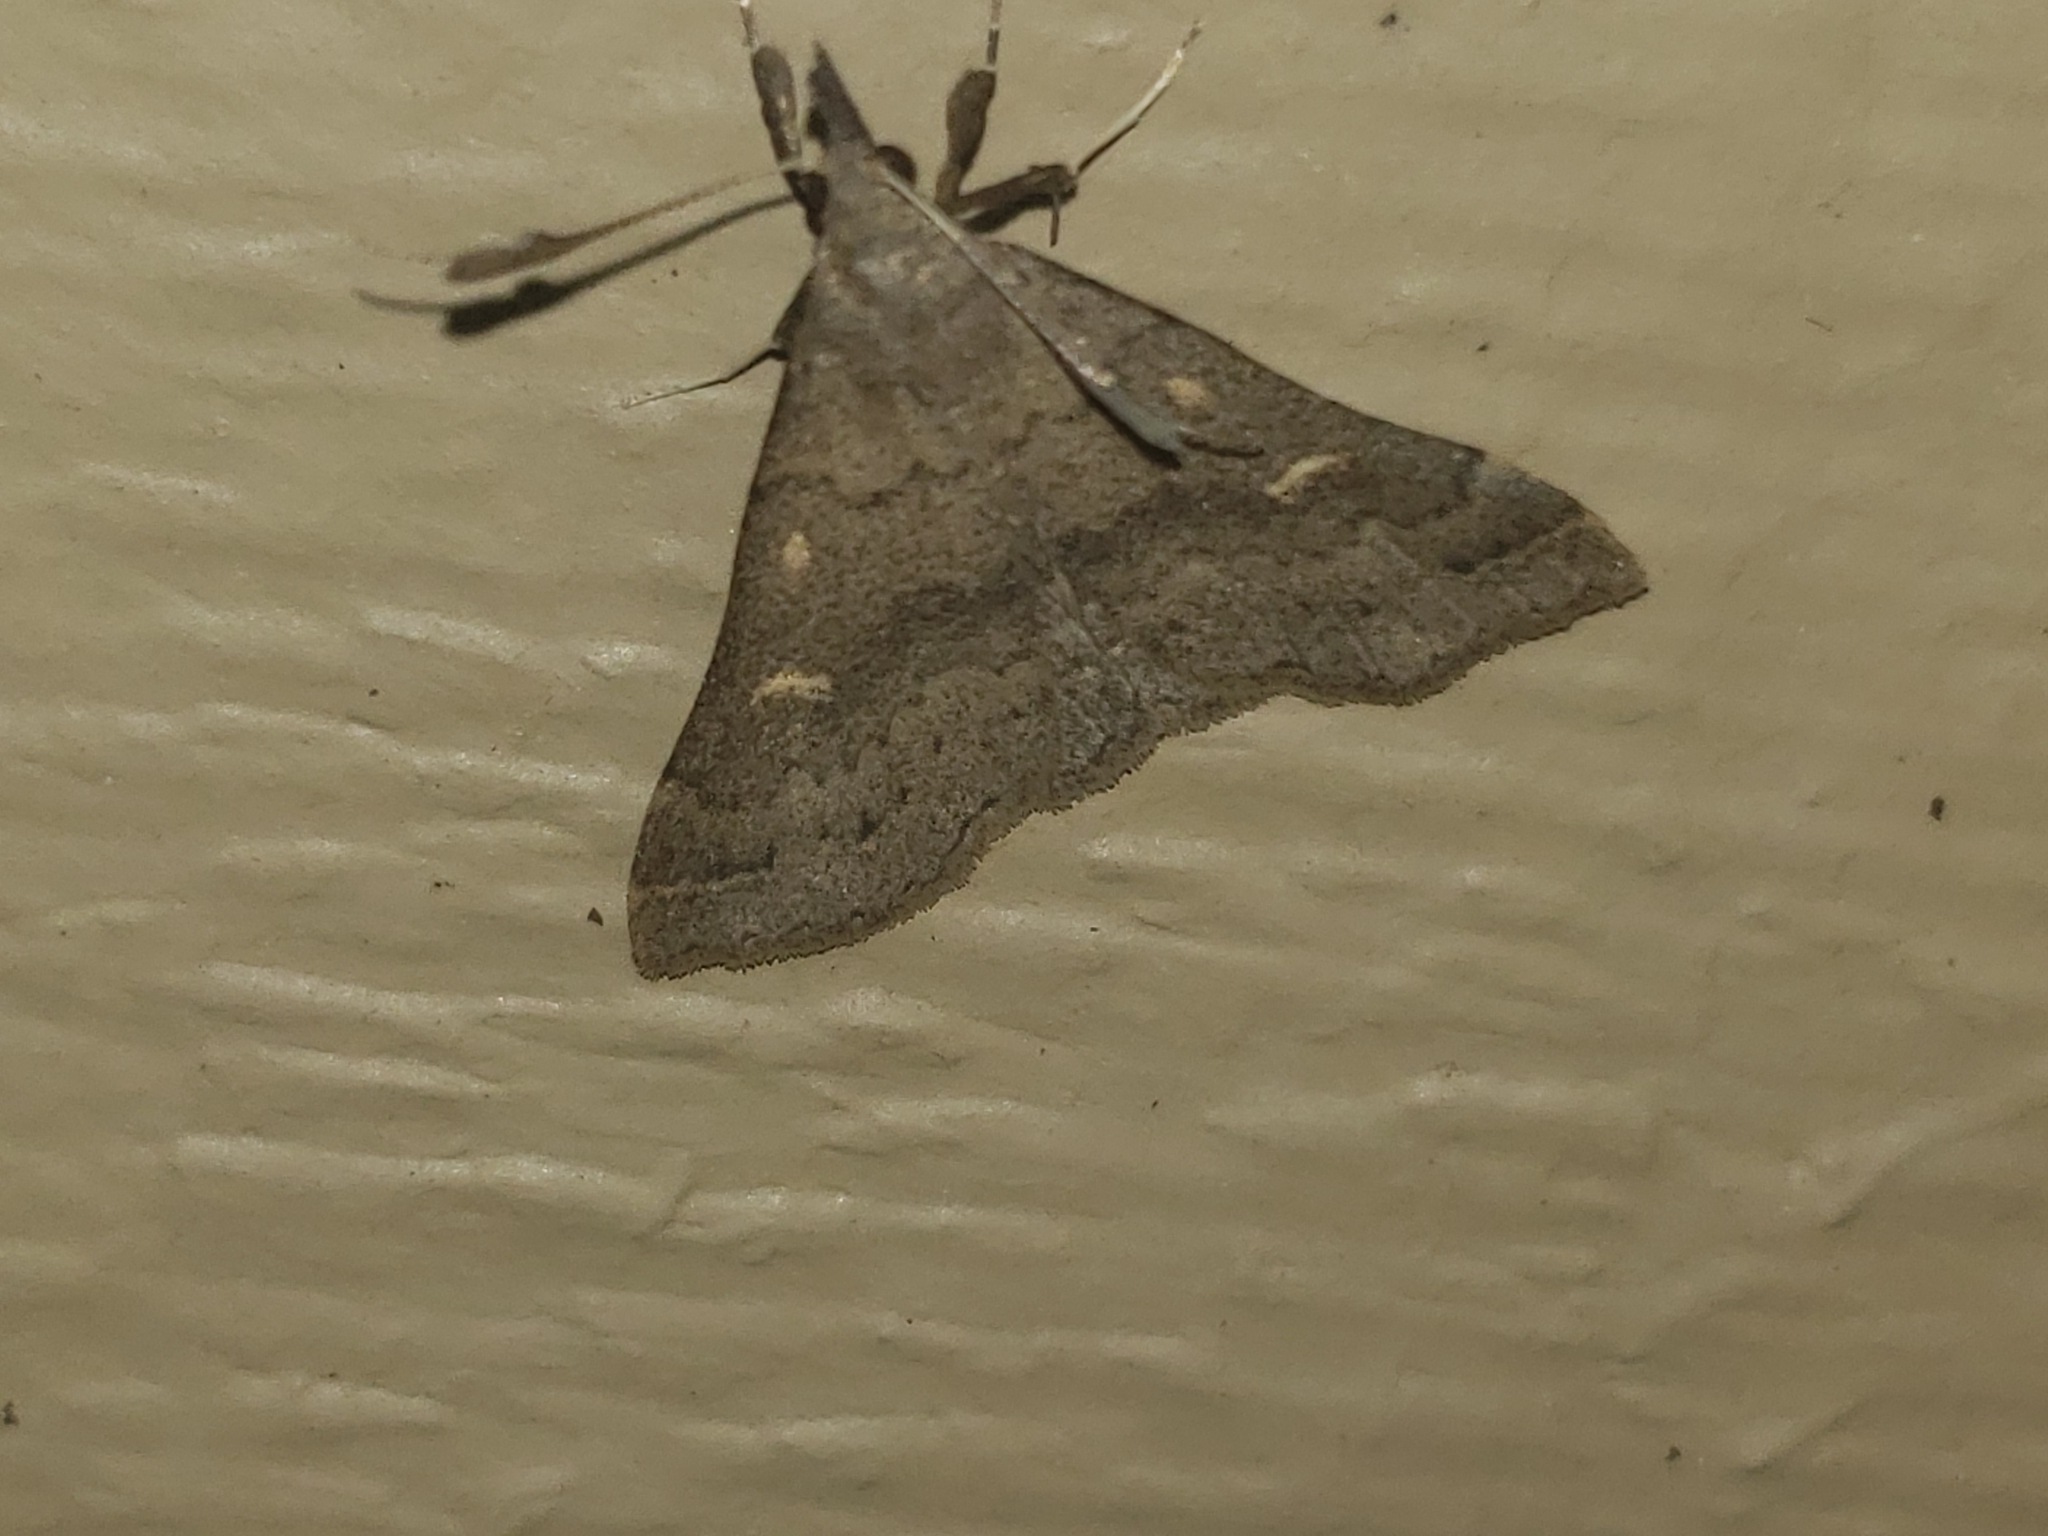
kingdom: Animalia
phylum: Arthropoda
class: Insecta
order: Lepidoptera
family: Erebidae
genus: Renia
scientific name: Renia adspergillus
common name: Speckled renia moth
